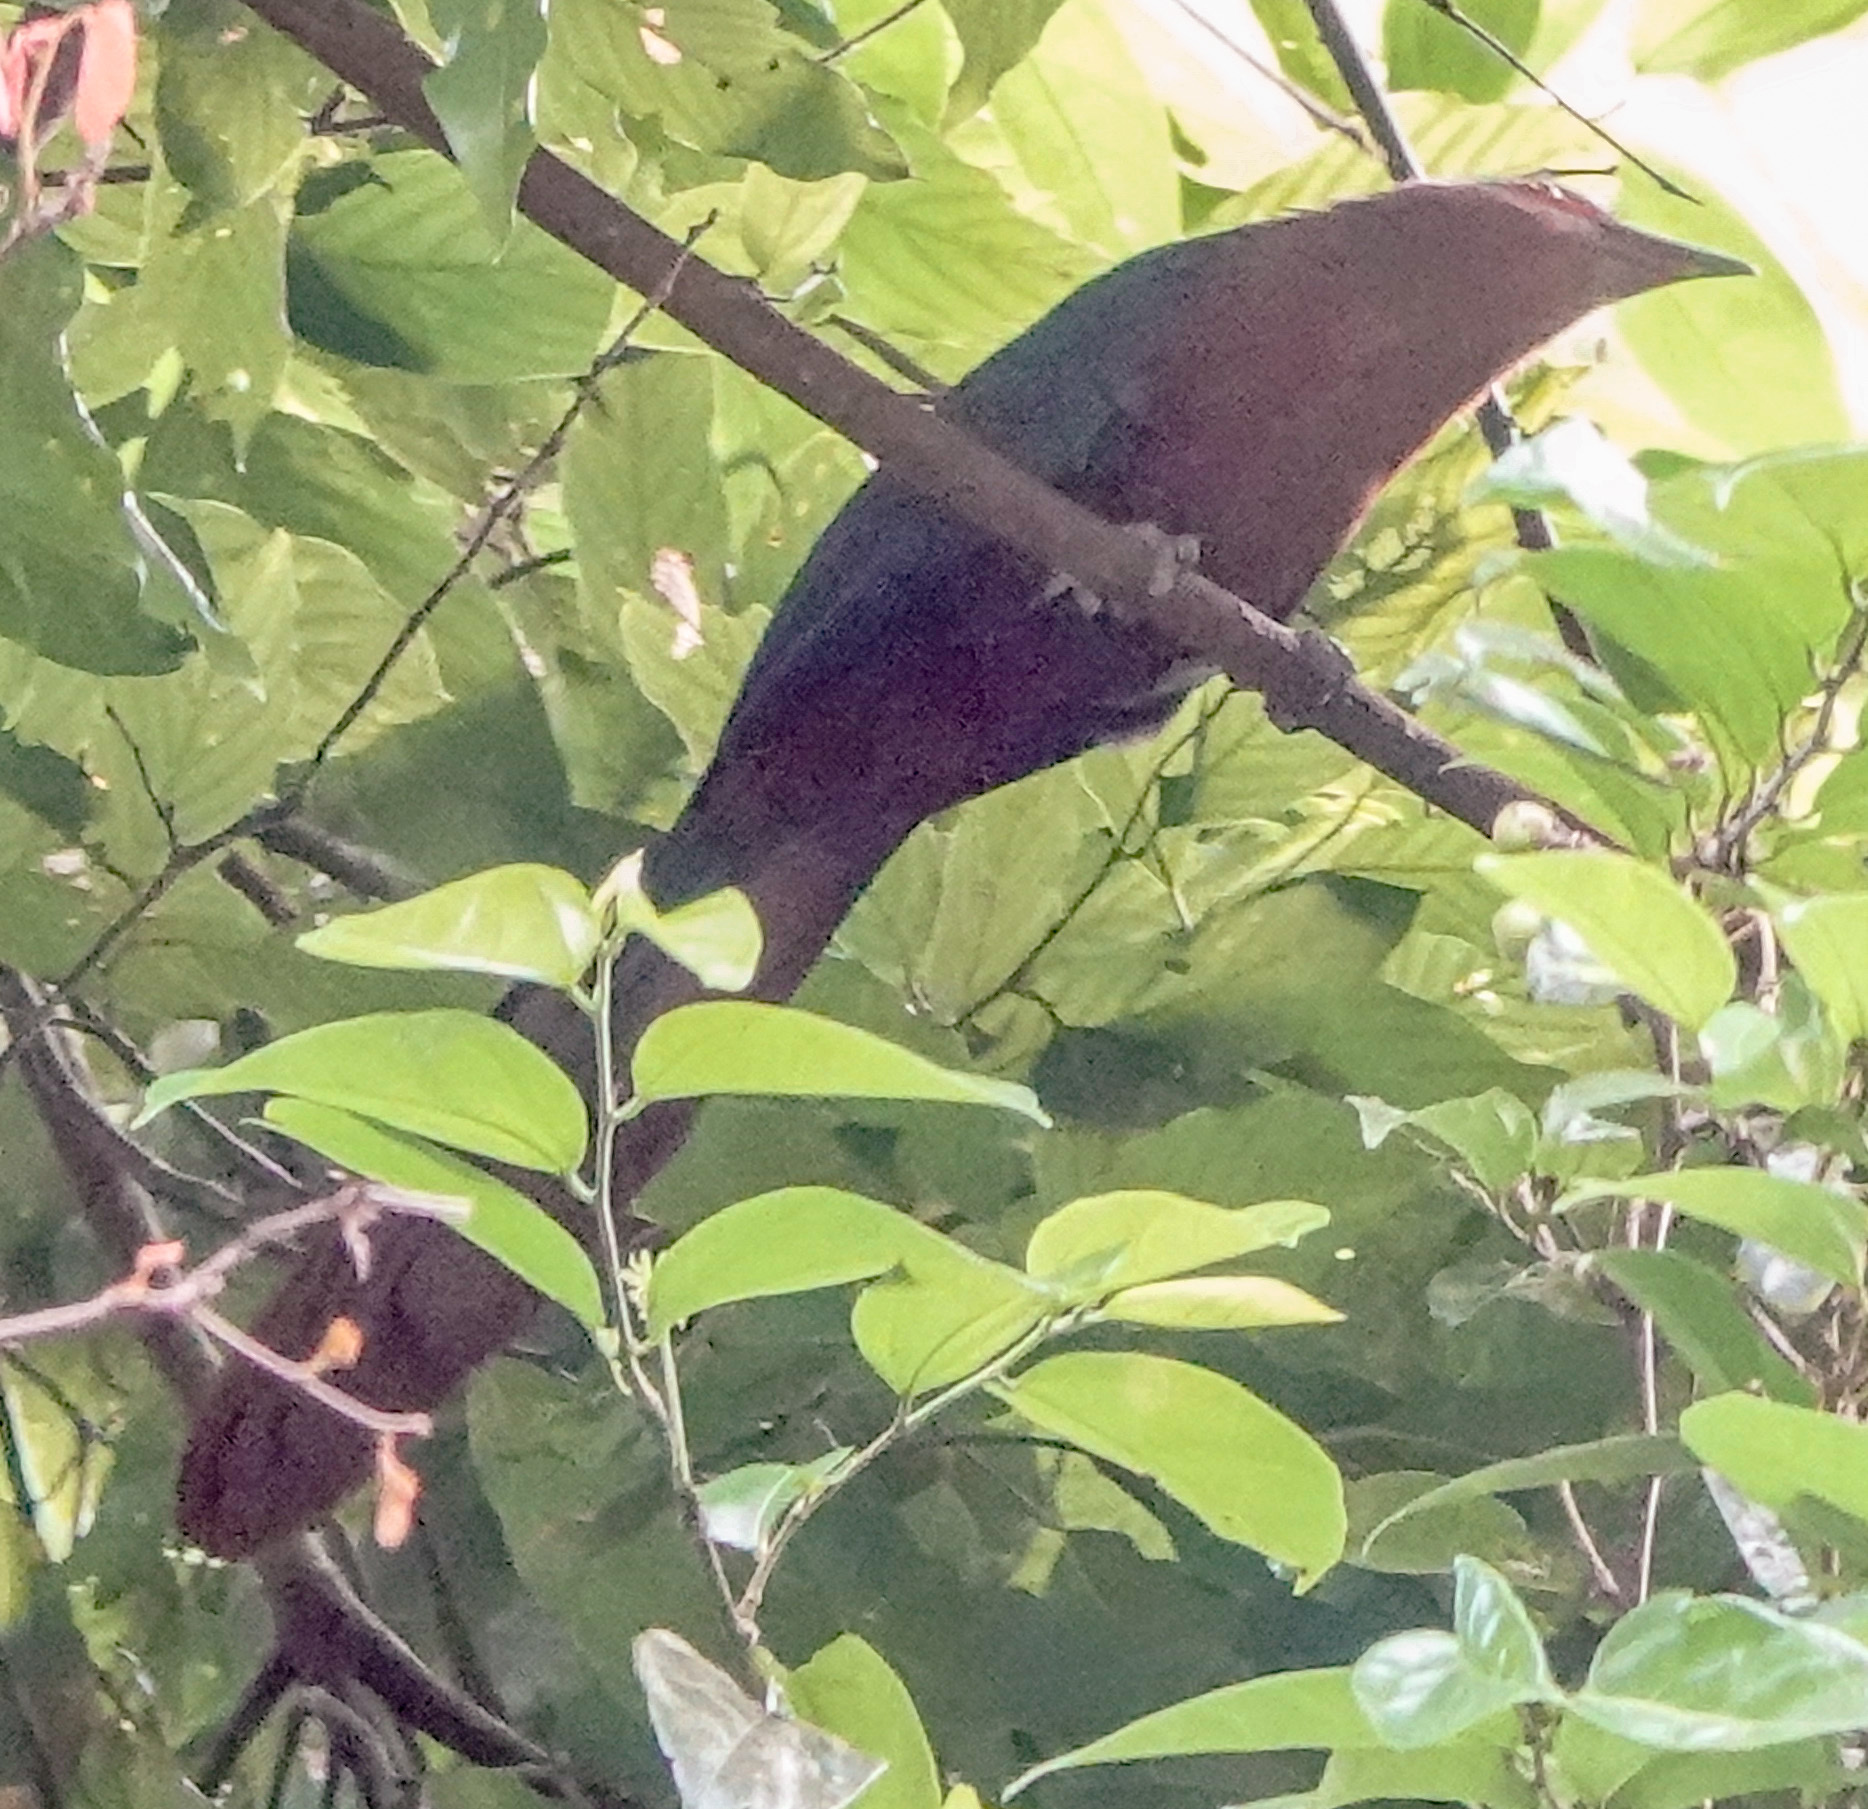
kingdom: Animalia
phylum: Chordata
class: Aves
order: Cuculiformes
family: Cuculidae
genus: Zanclostomus
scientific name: Zanclostomus curvirostris
